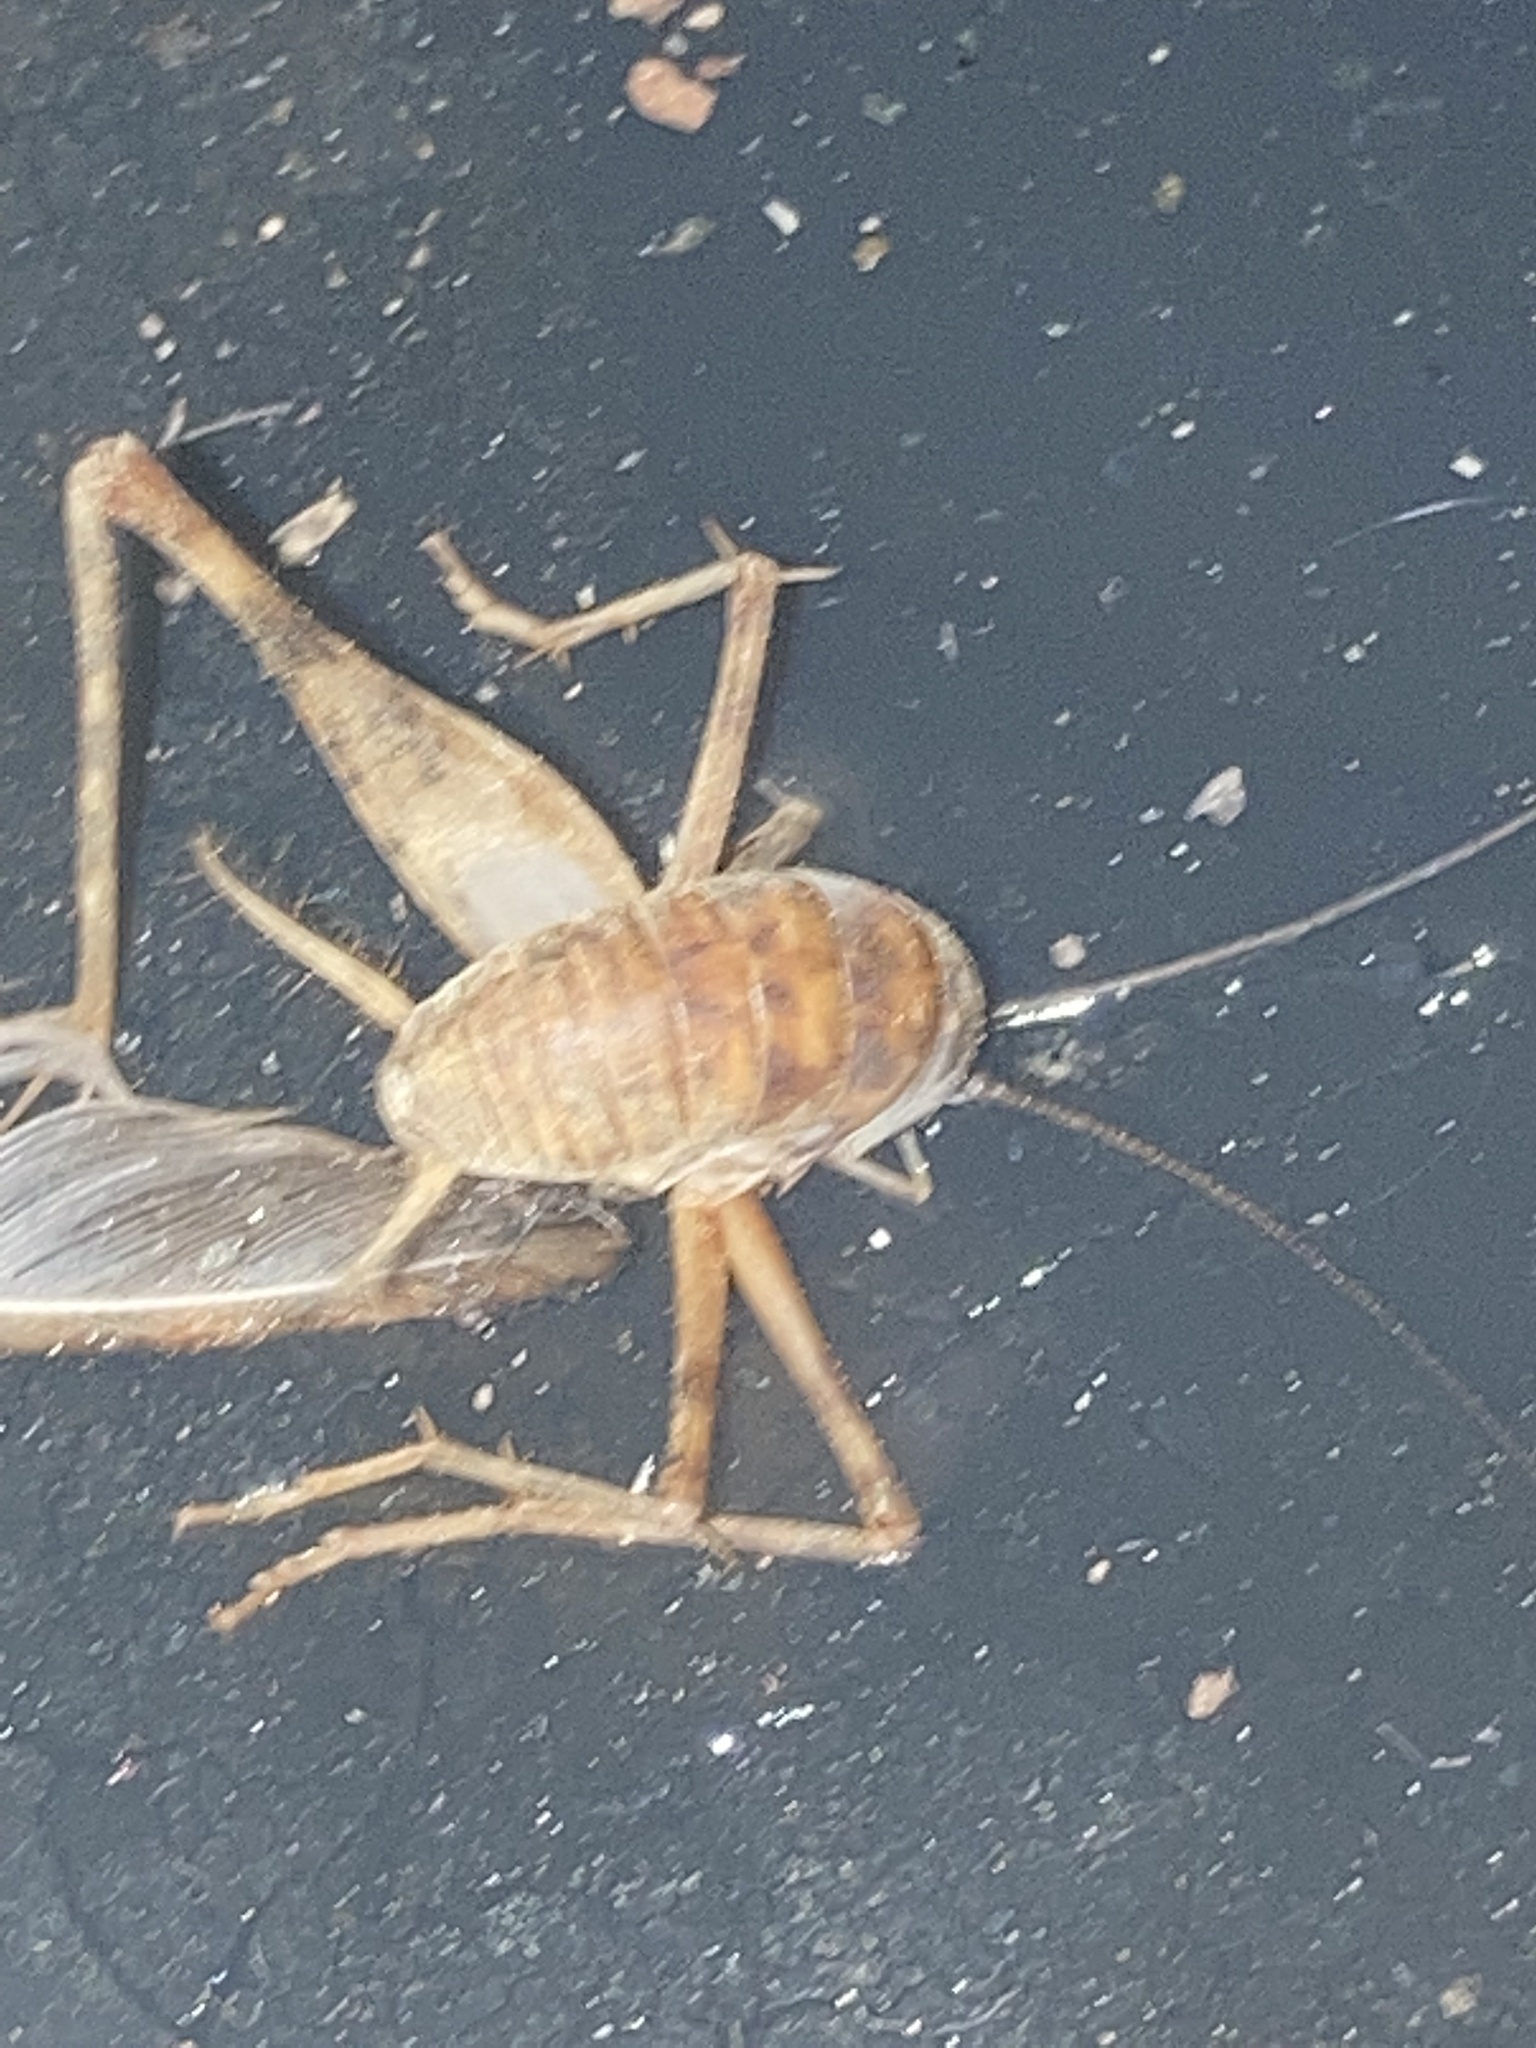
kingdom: Animalia
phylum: Arthropoda
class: Insecta
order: Orthoptera
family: Rhaphidophoridae
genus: Tachycines
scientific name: Tachycines asynamorus
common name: Greenhouse camel cricket
